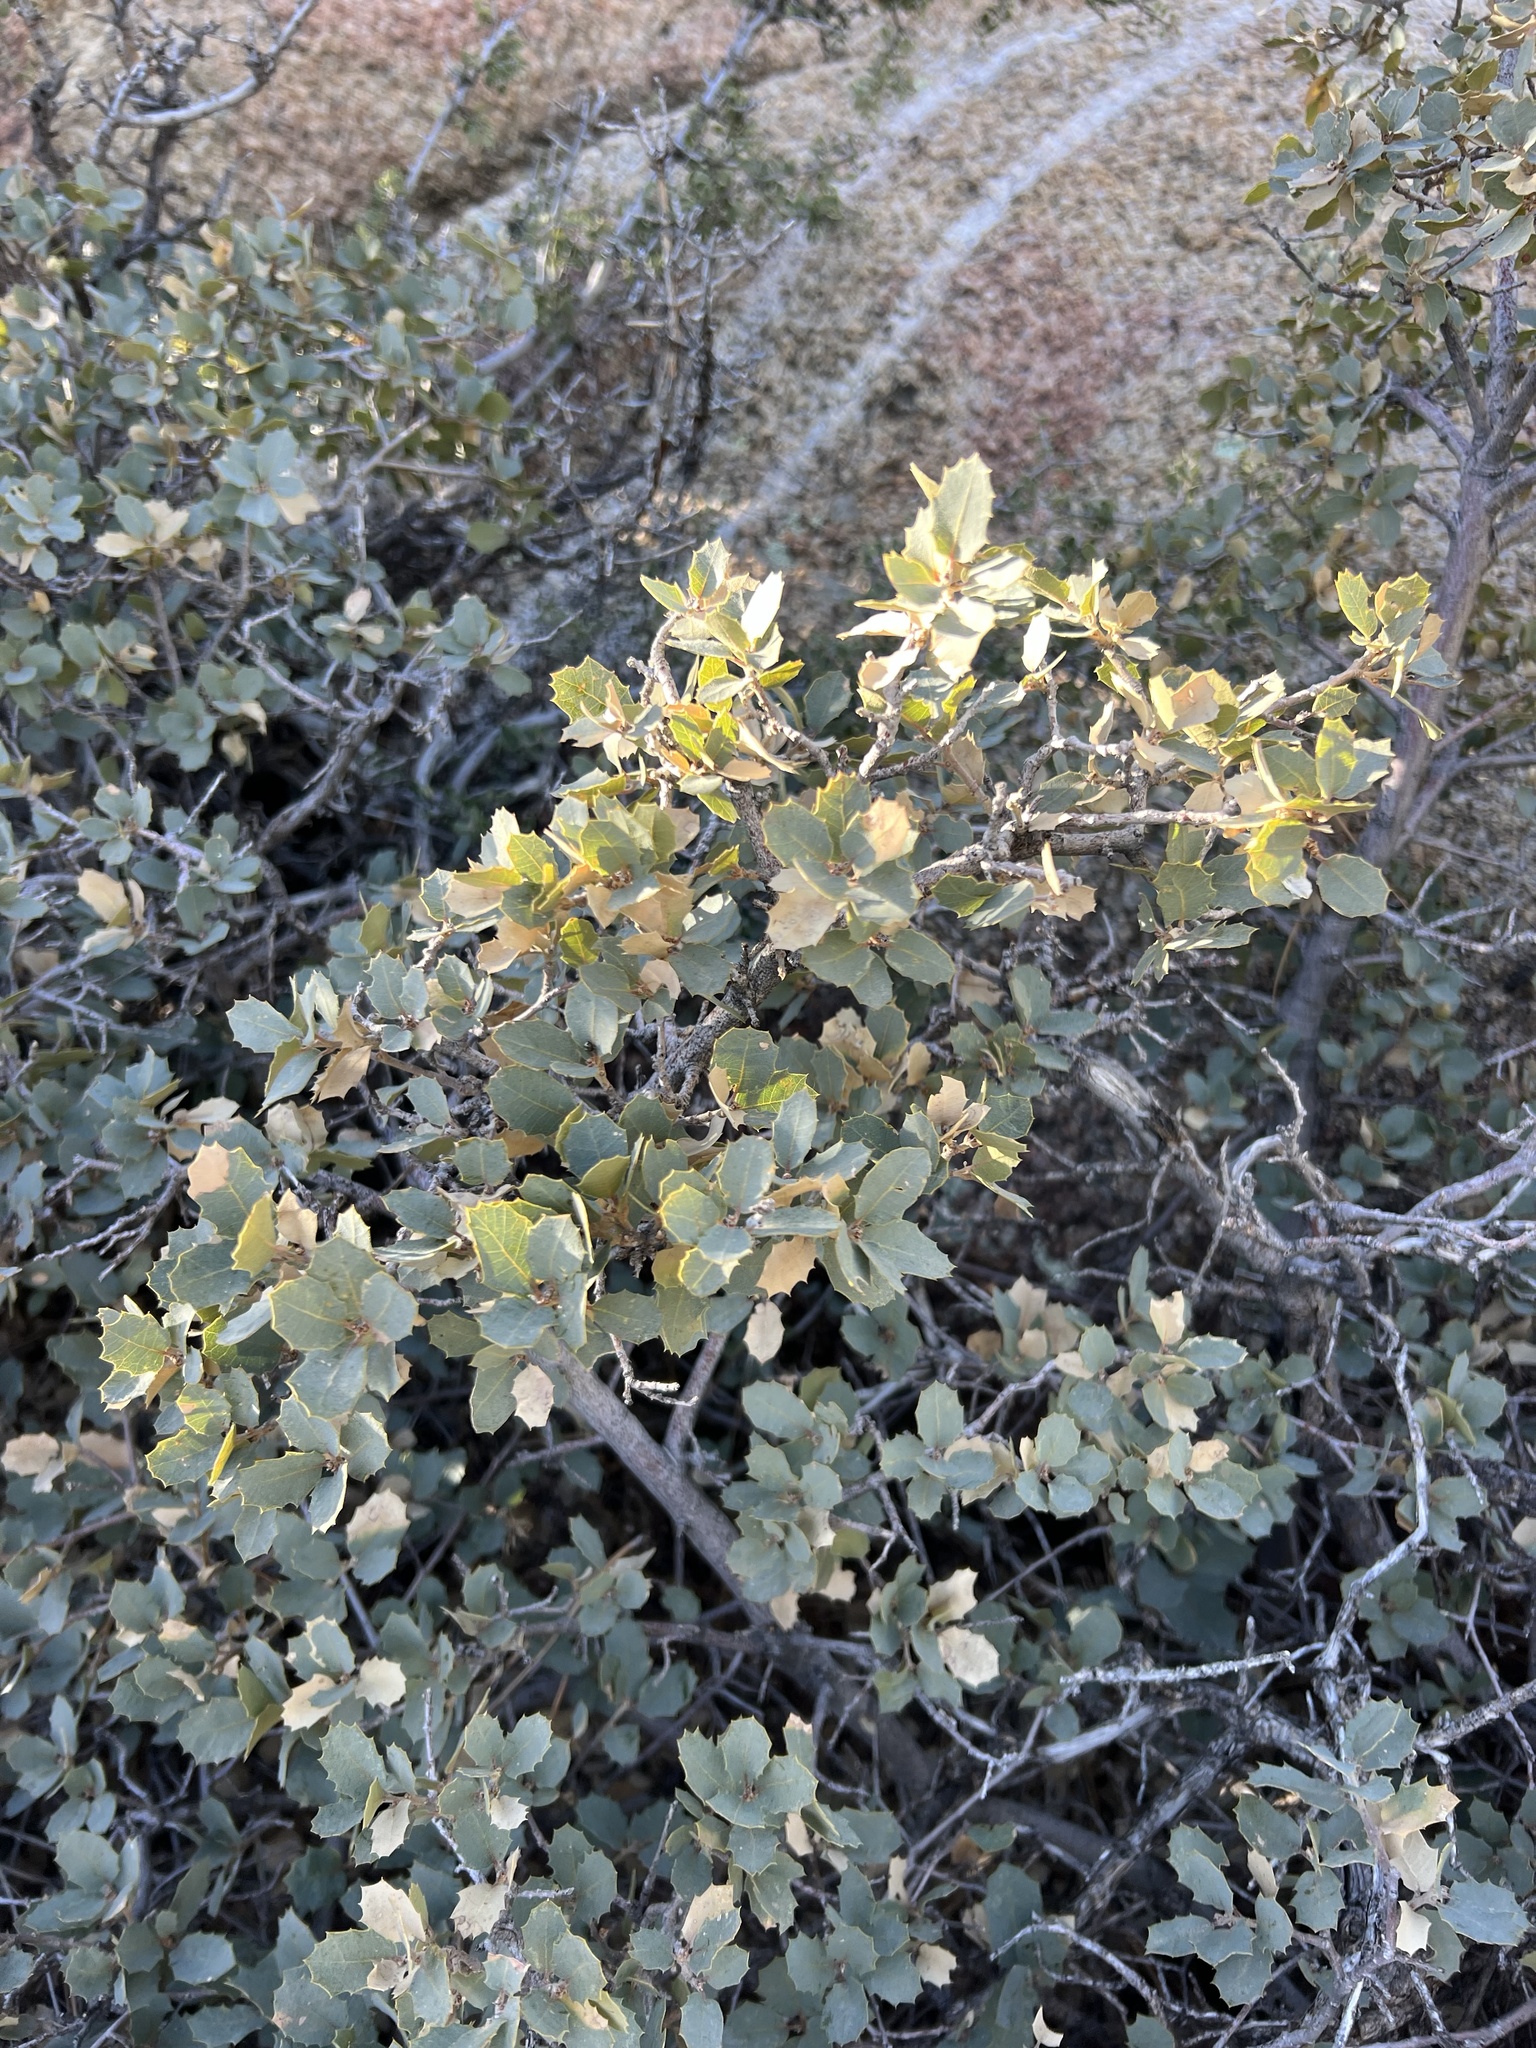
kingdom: Plantae
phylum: Tracheophyta
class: Magnoliopsida
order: Fagales
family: Fagaceae
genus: Quercus
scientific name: Quercus turbinella
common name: Sonoran scrub oak
